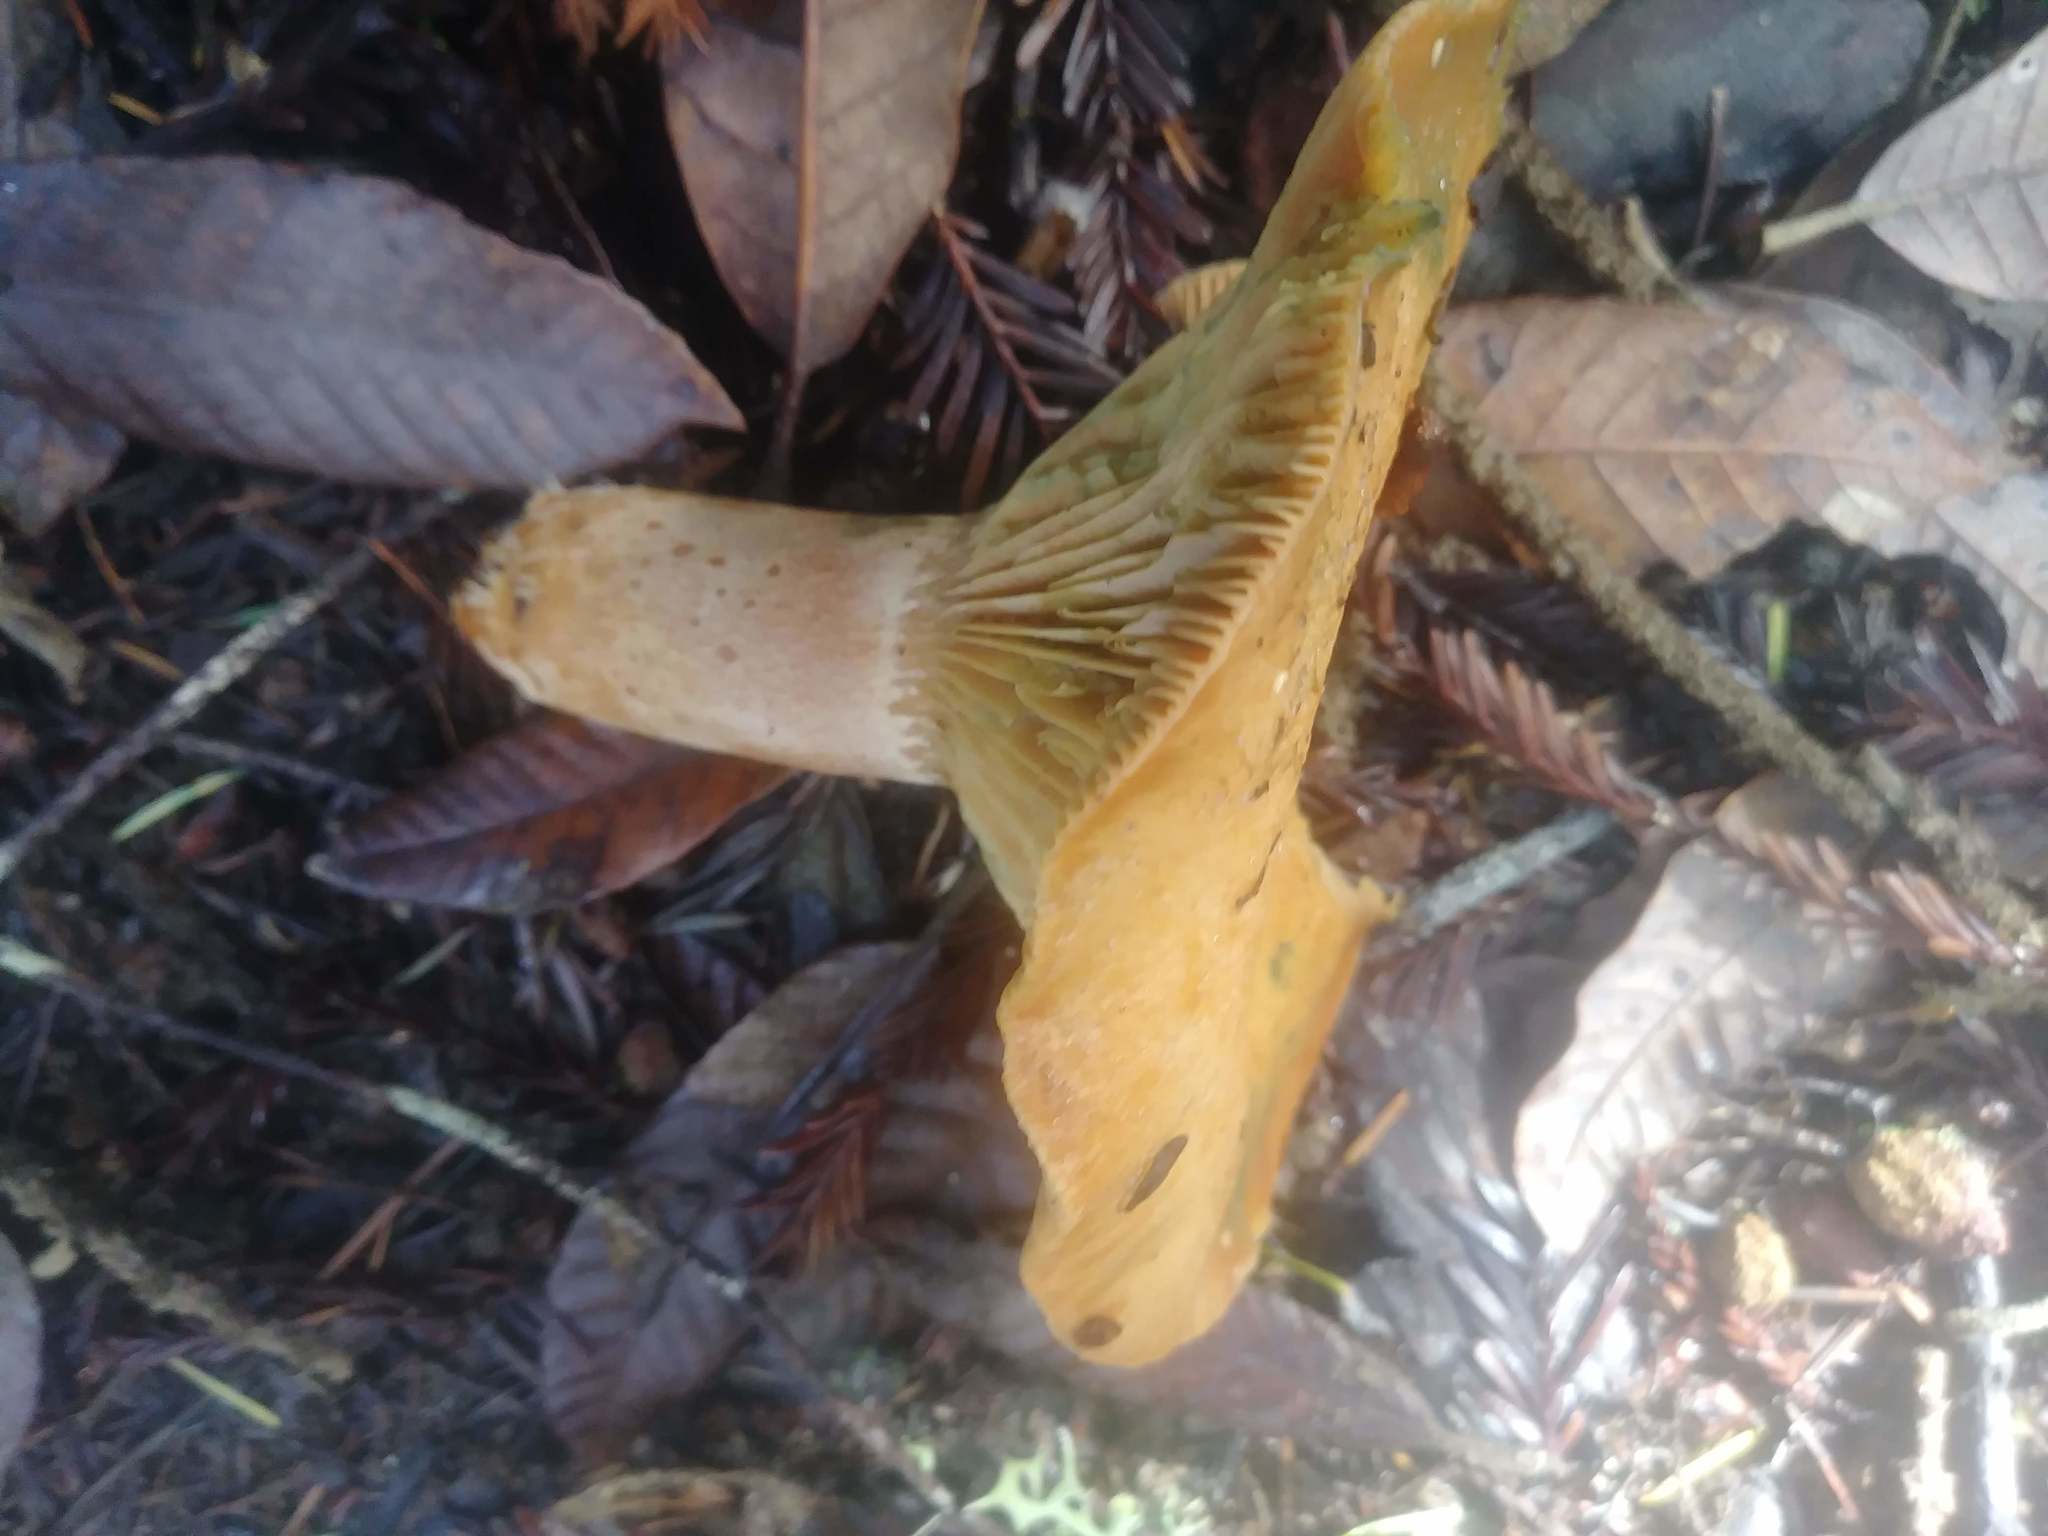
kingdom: Fungi
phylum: Basidiomycota
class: Agaricomycetes
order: Russulales
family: Russulaceae
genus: Lactarius
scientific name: Lactarius rubrilacteus
